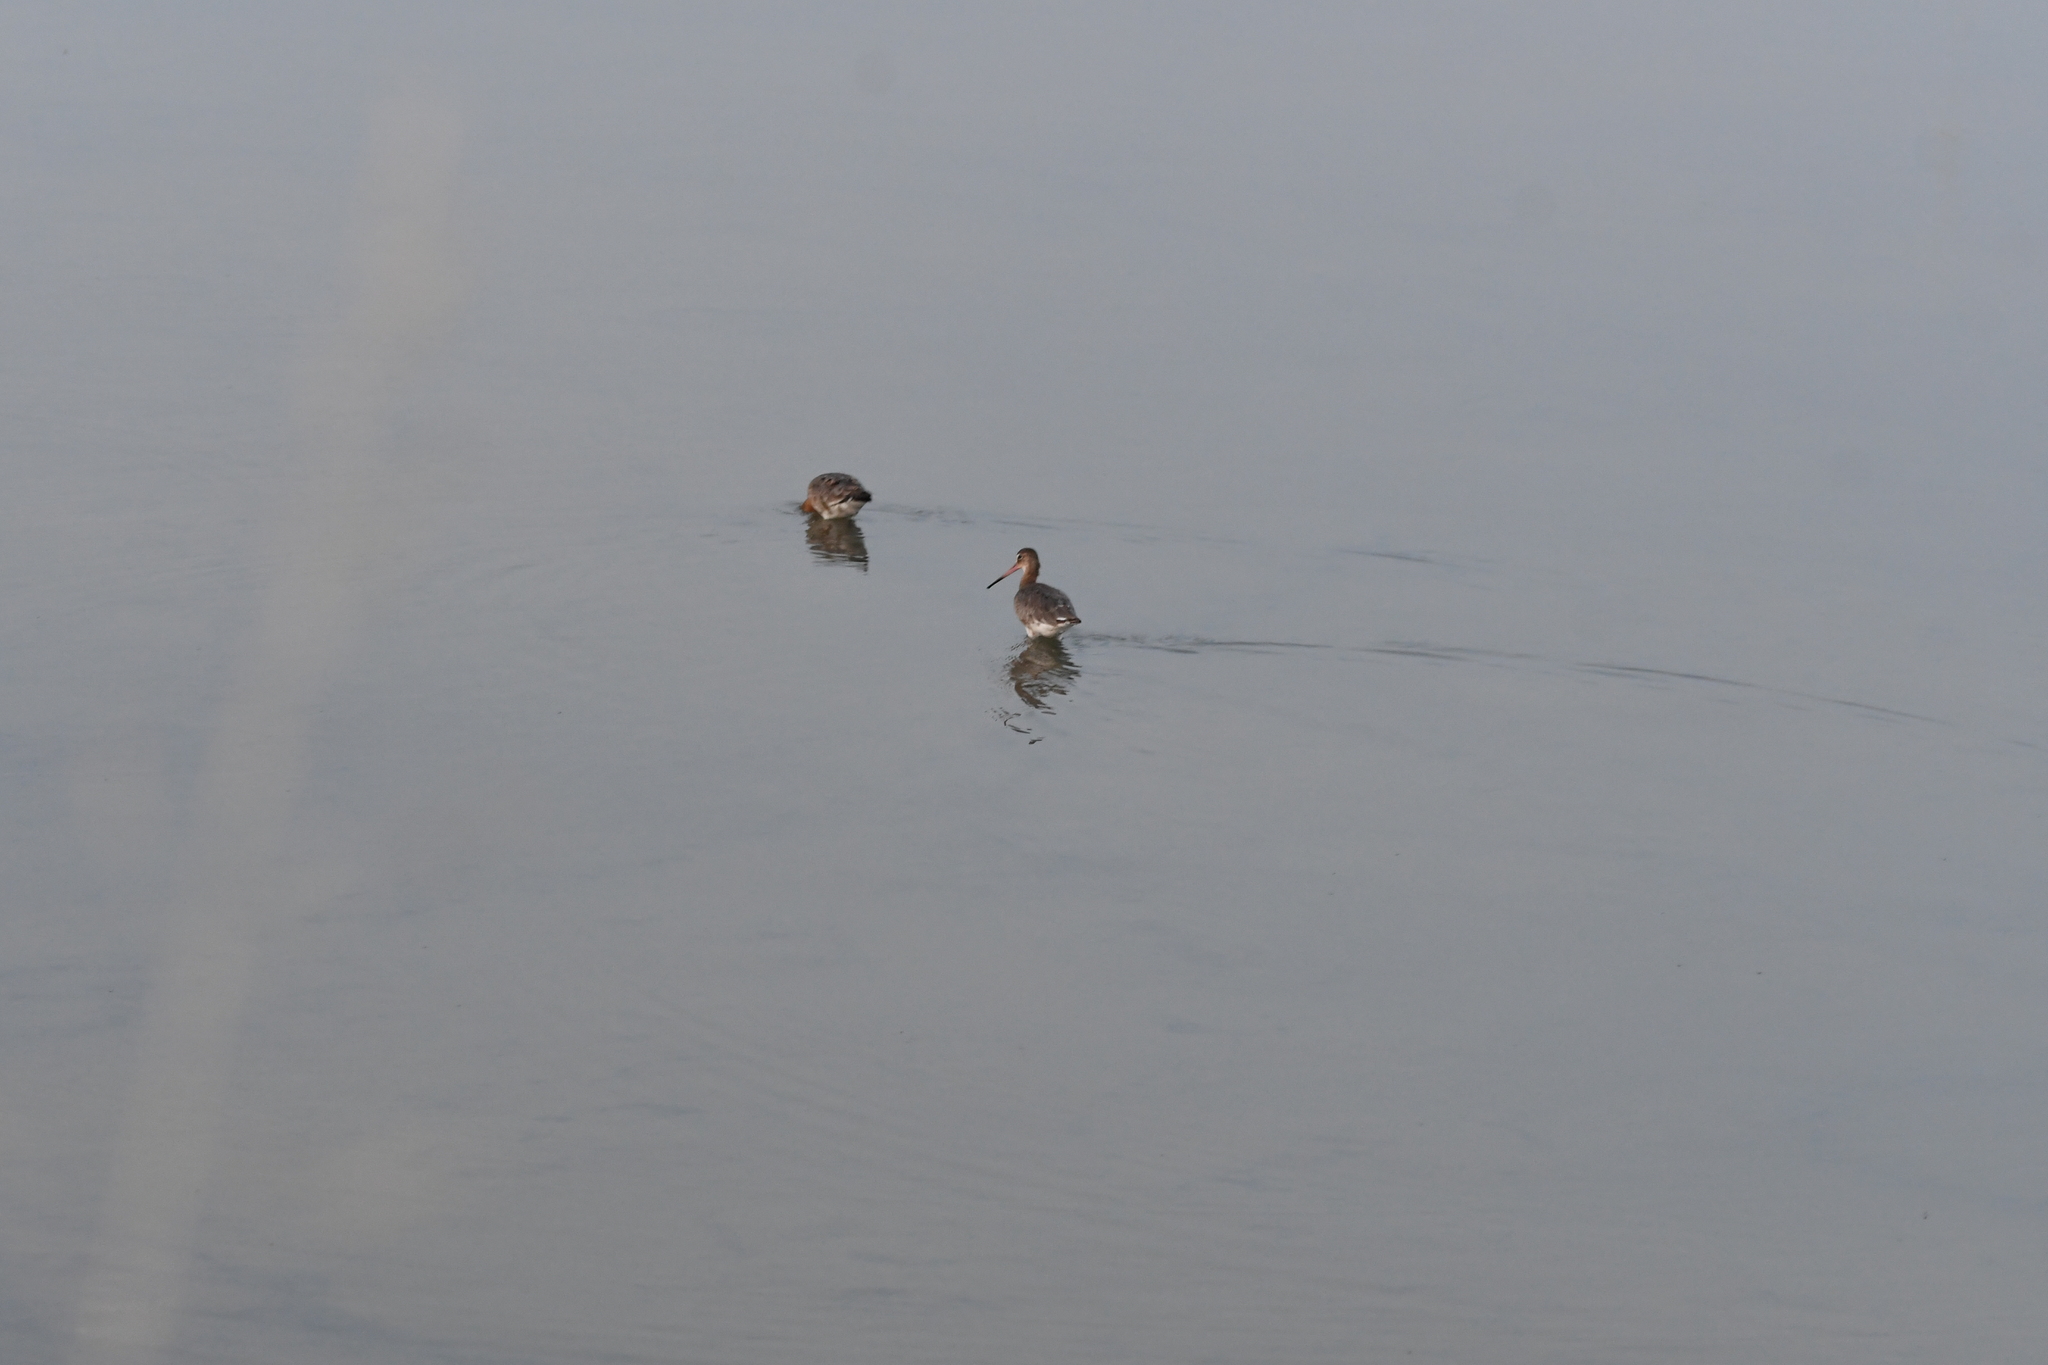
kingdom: Animalia
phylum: Chordata
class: Aves
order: Charadriiformes
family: Scolopacidae
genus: Limosa
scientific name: Limosa limosa
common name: Black-tailed godwit
